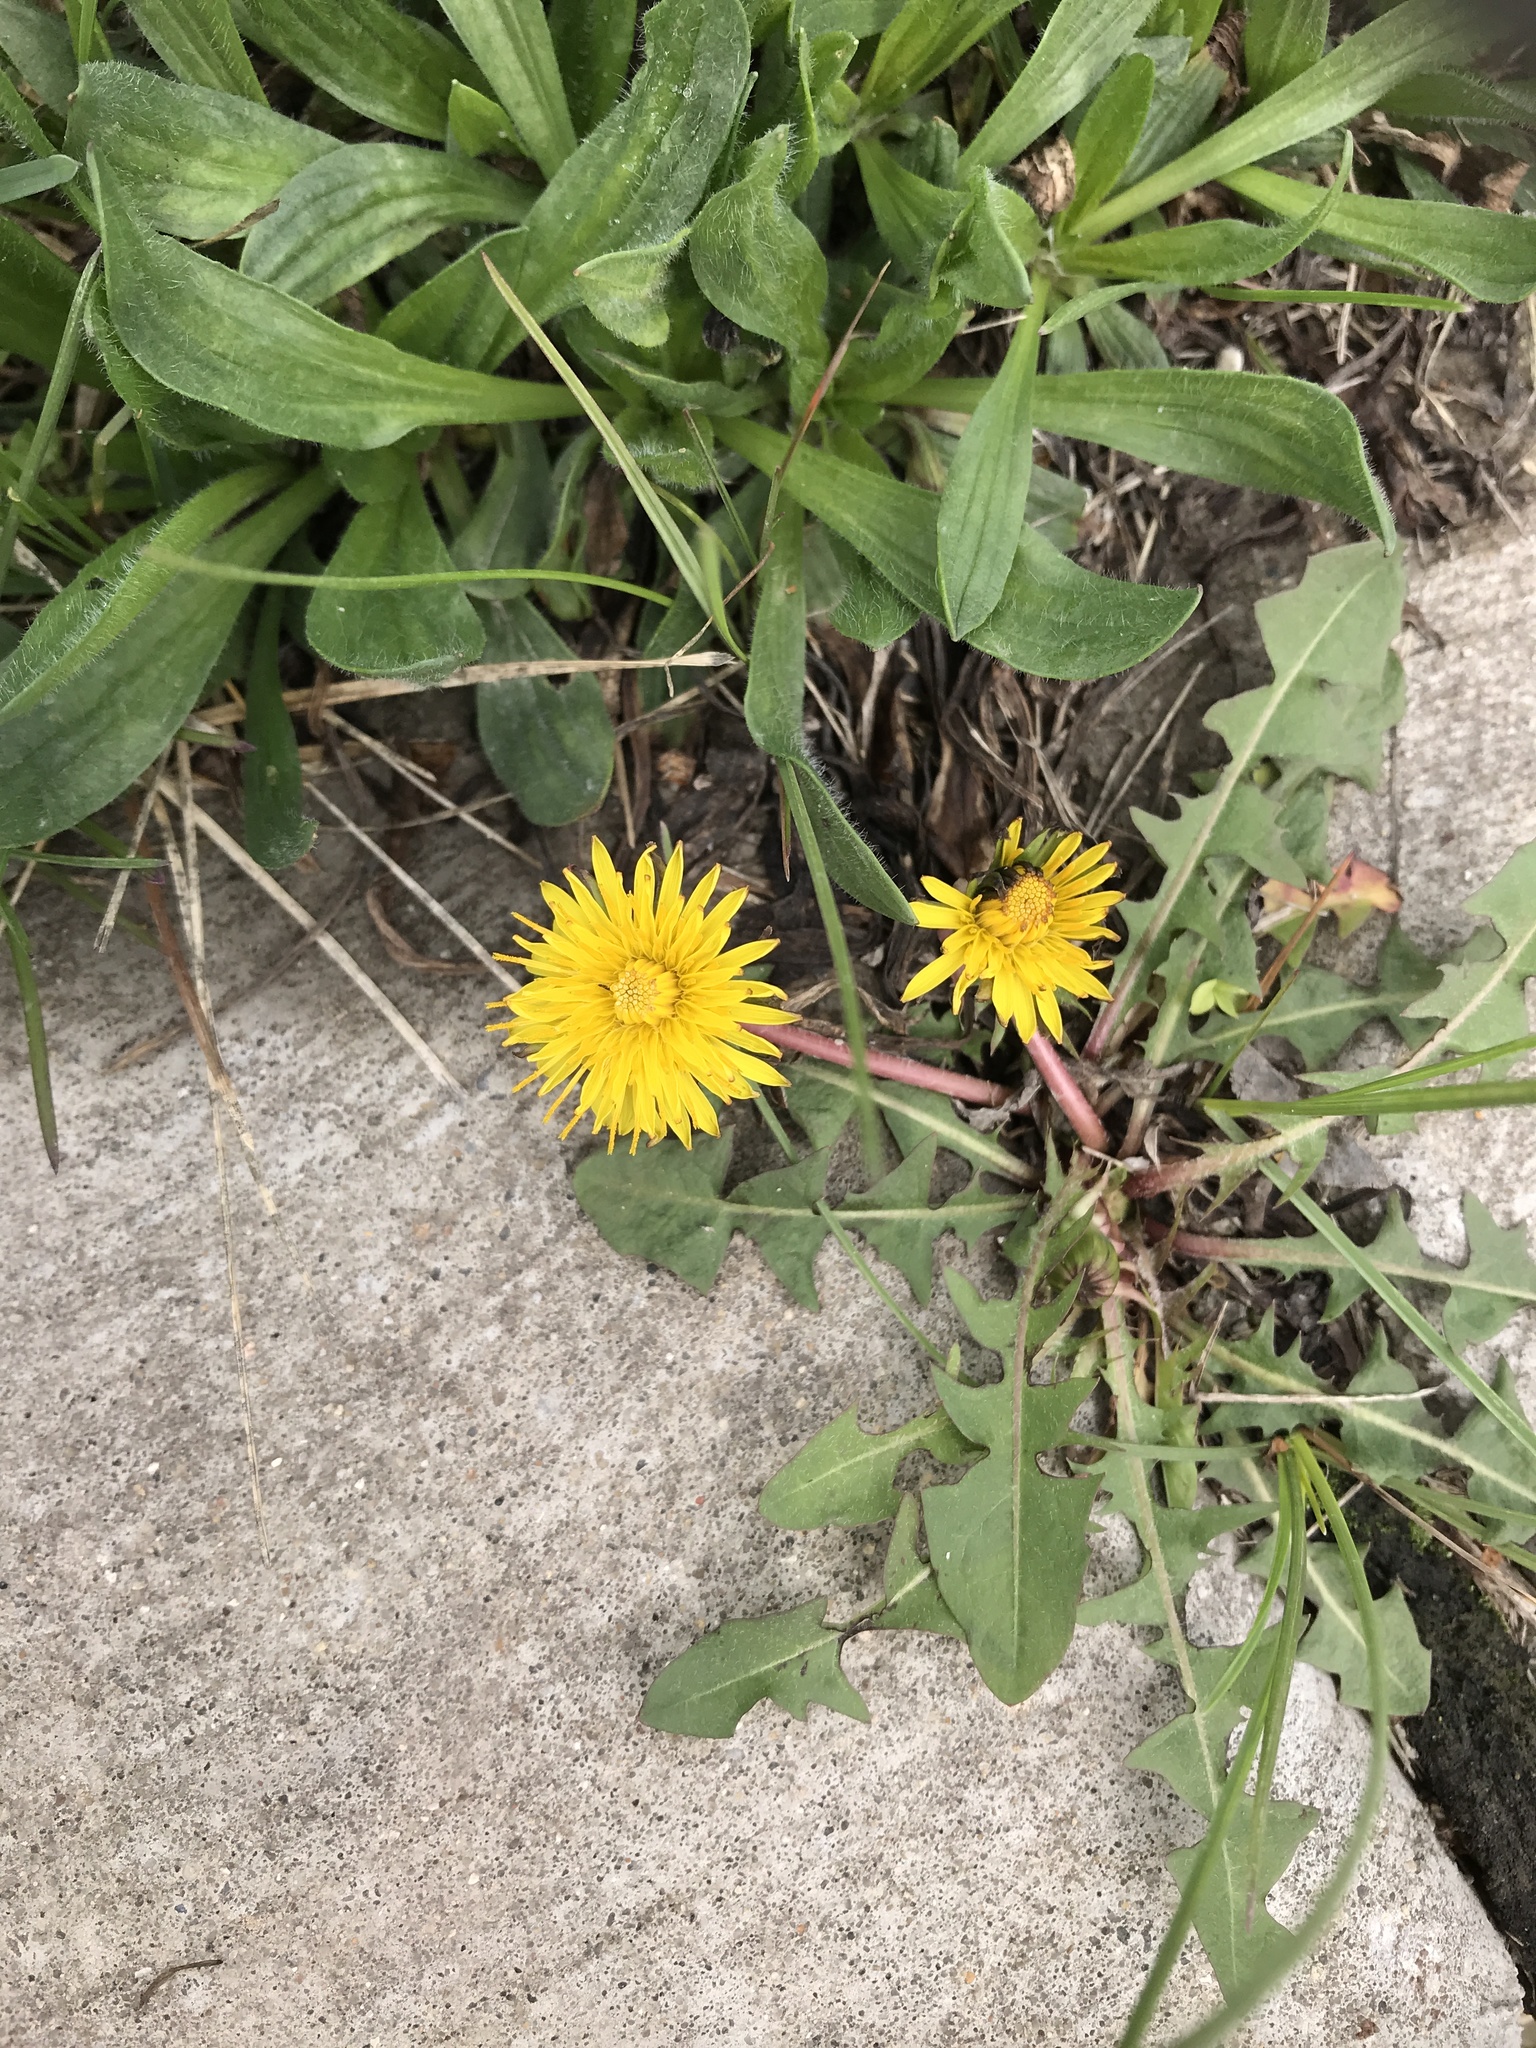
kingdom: Plantae
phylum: Tracheophyta
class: Magnoliopsida
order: Asterales
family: Asteraceae
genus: Taraxacum
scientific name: Taraxacum officinale
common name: Common dandelion
